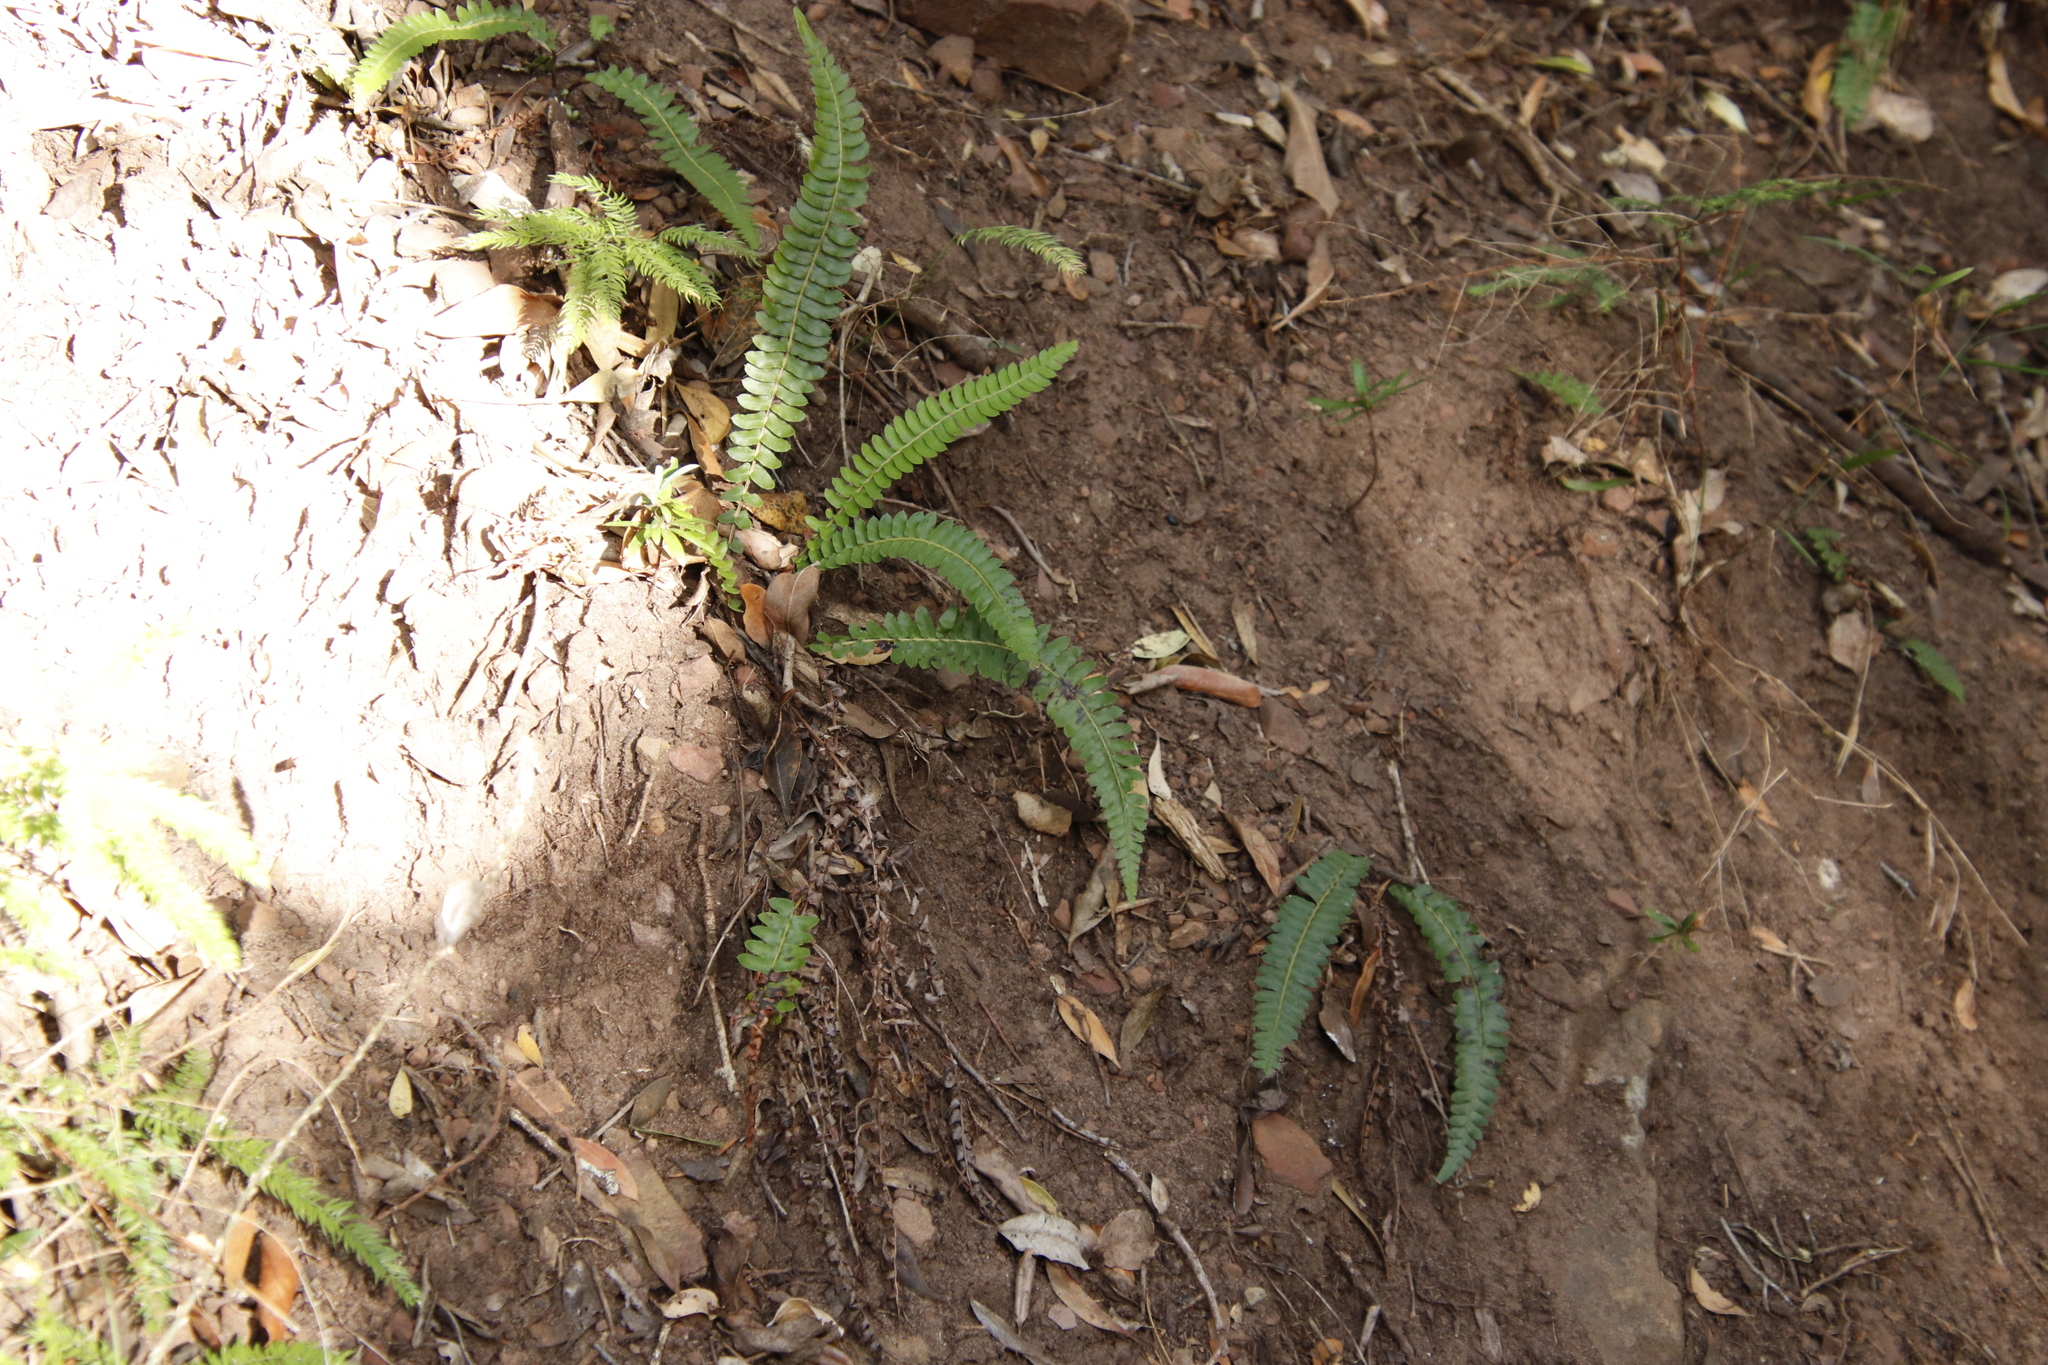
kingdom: Plantae
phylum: Tracheophyta
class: Polypodiopsida
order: Polypodiales
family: Blechnaceae
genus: Blechnum
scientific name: Blechnum australe
